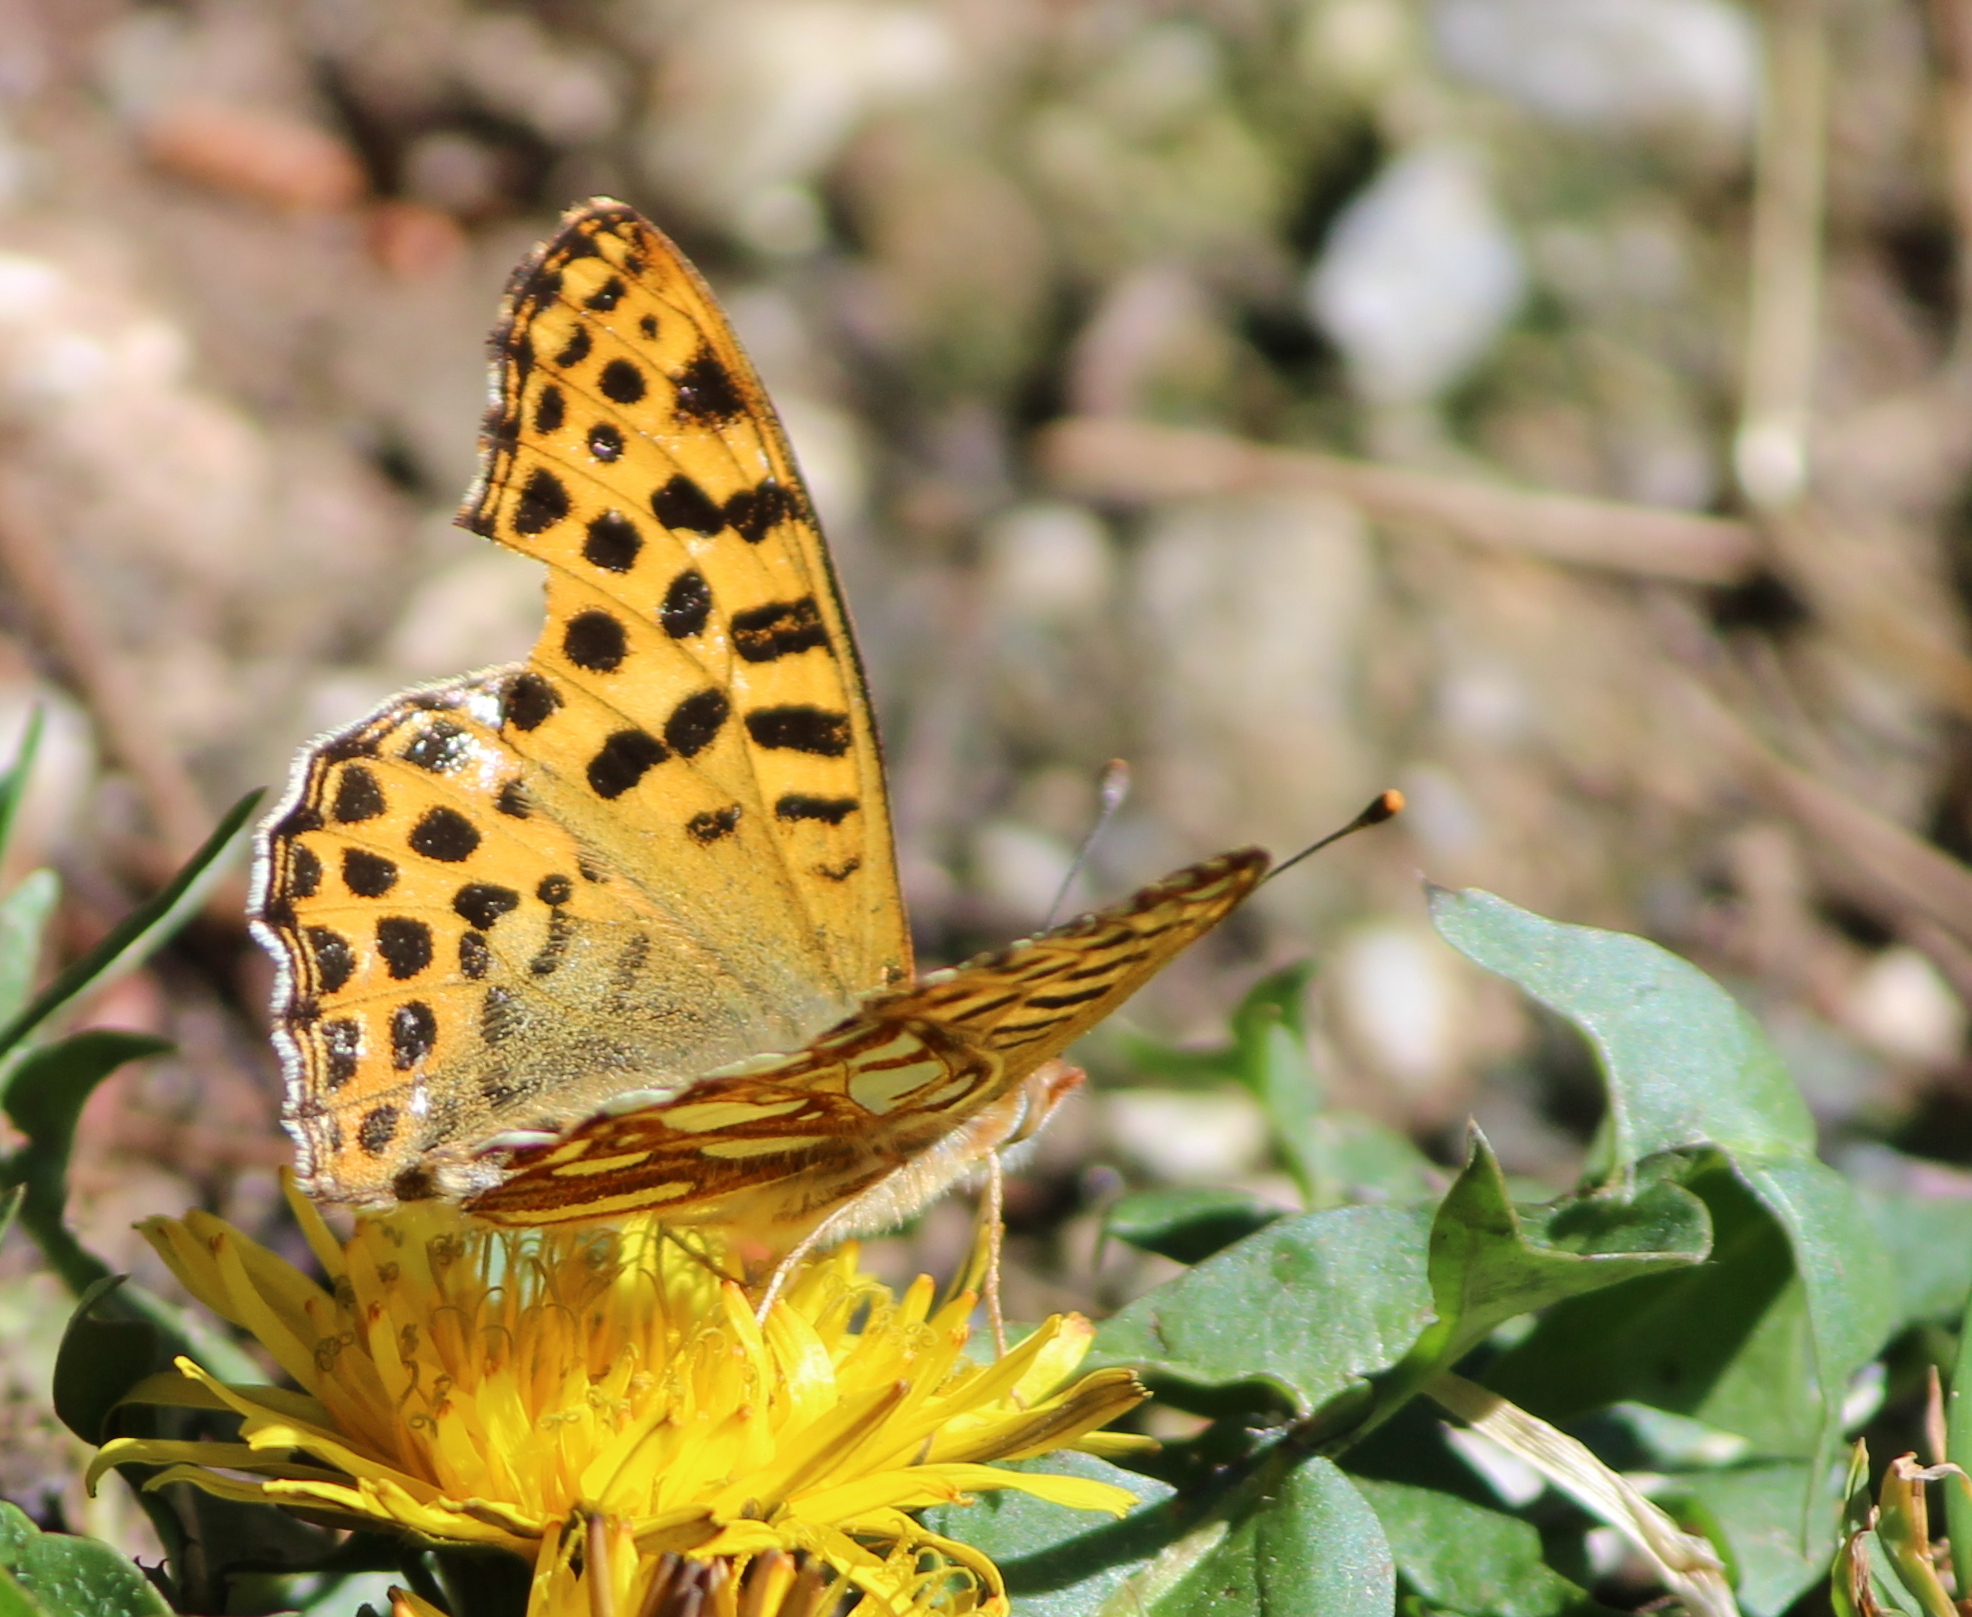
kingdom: Animalia
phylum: Arthropoda
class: Insecta
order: Lepidoptera
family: Nymphalidae
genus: Issoria
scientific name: Issoria
